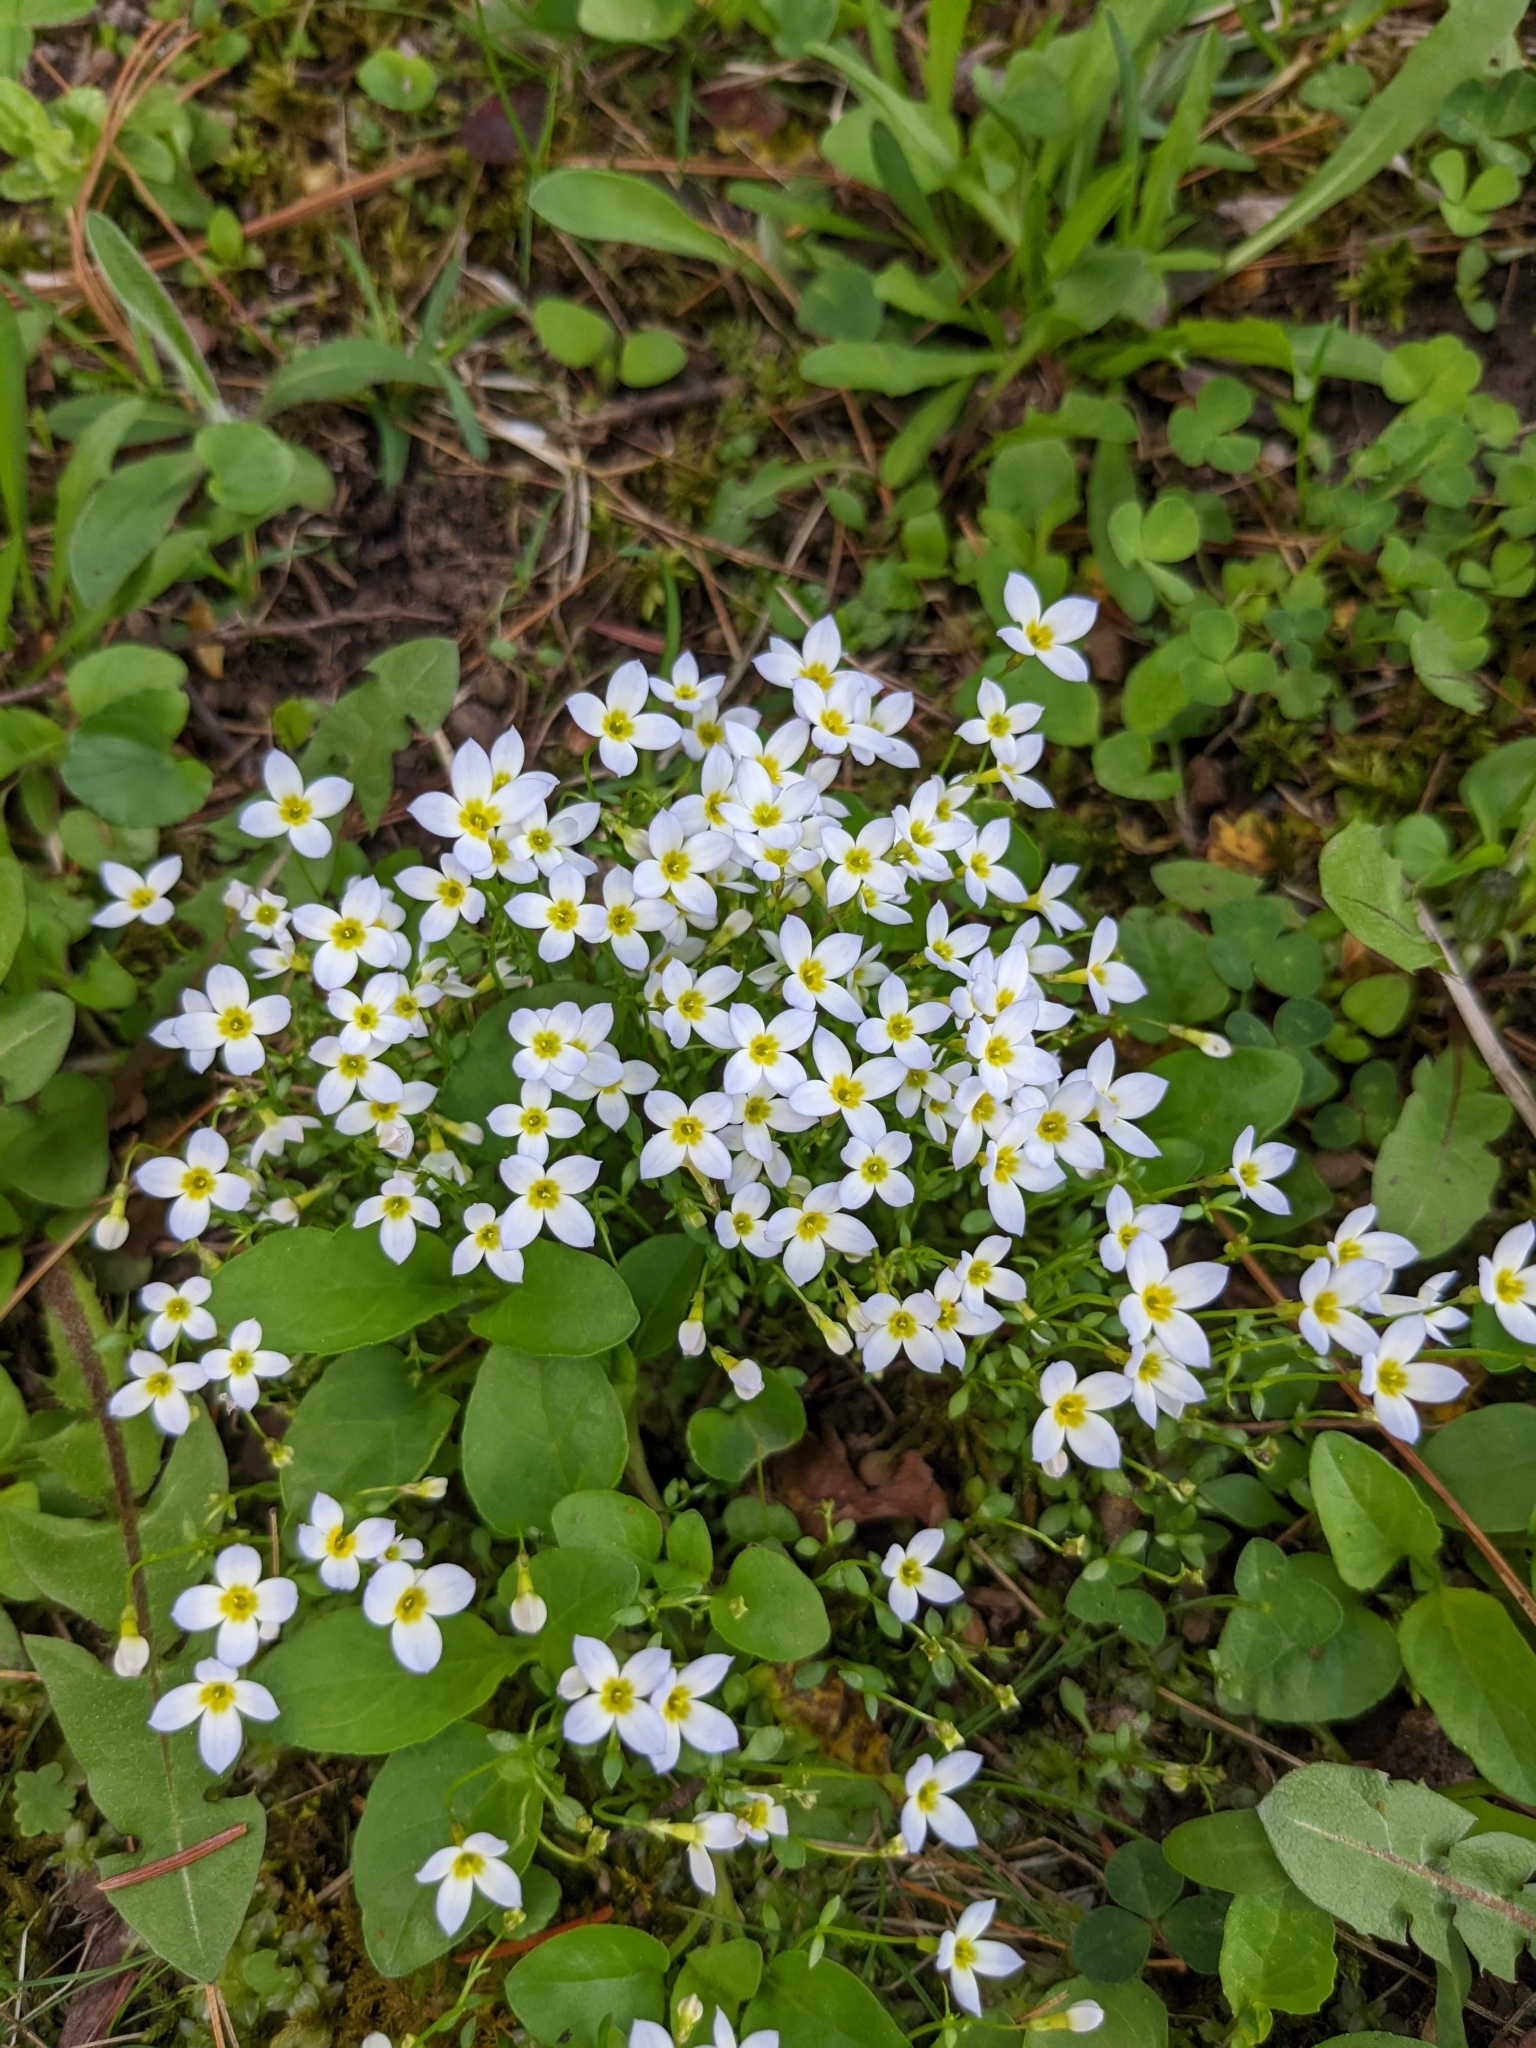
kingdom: Plantae
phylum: Tracheophyta
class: Magnoliopsida
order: Gentianales
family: Rubiaceae
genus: Houstonia
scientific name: Houstonia caerulea
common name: Bluets
